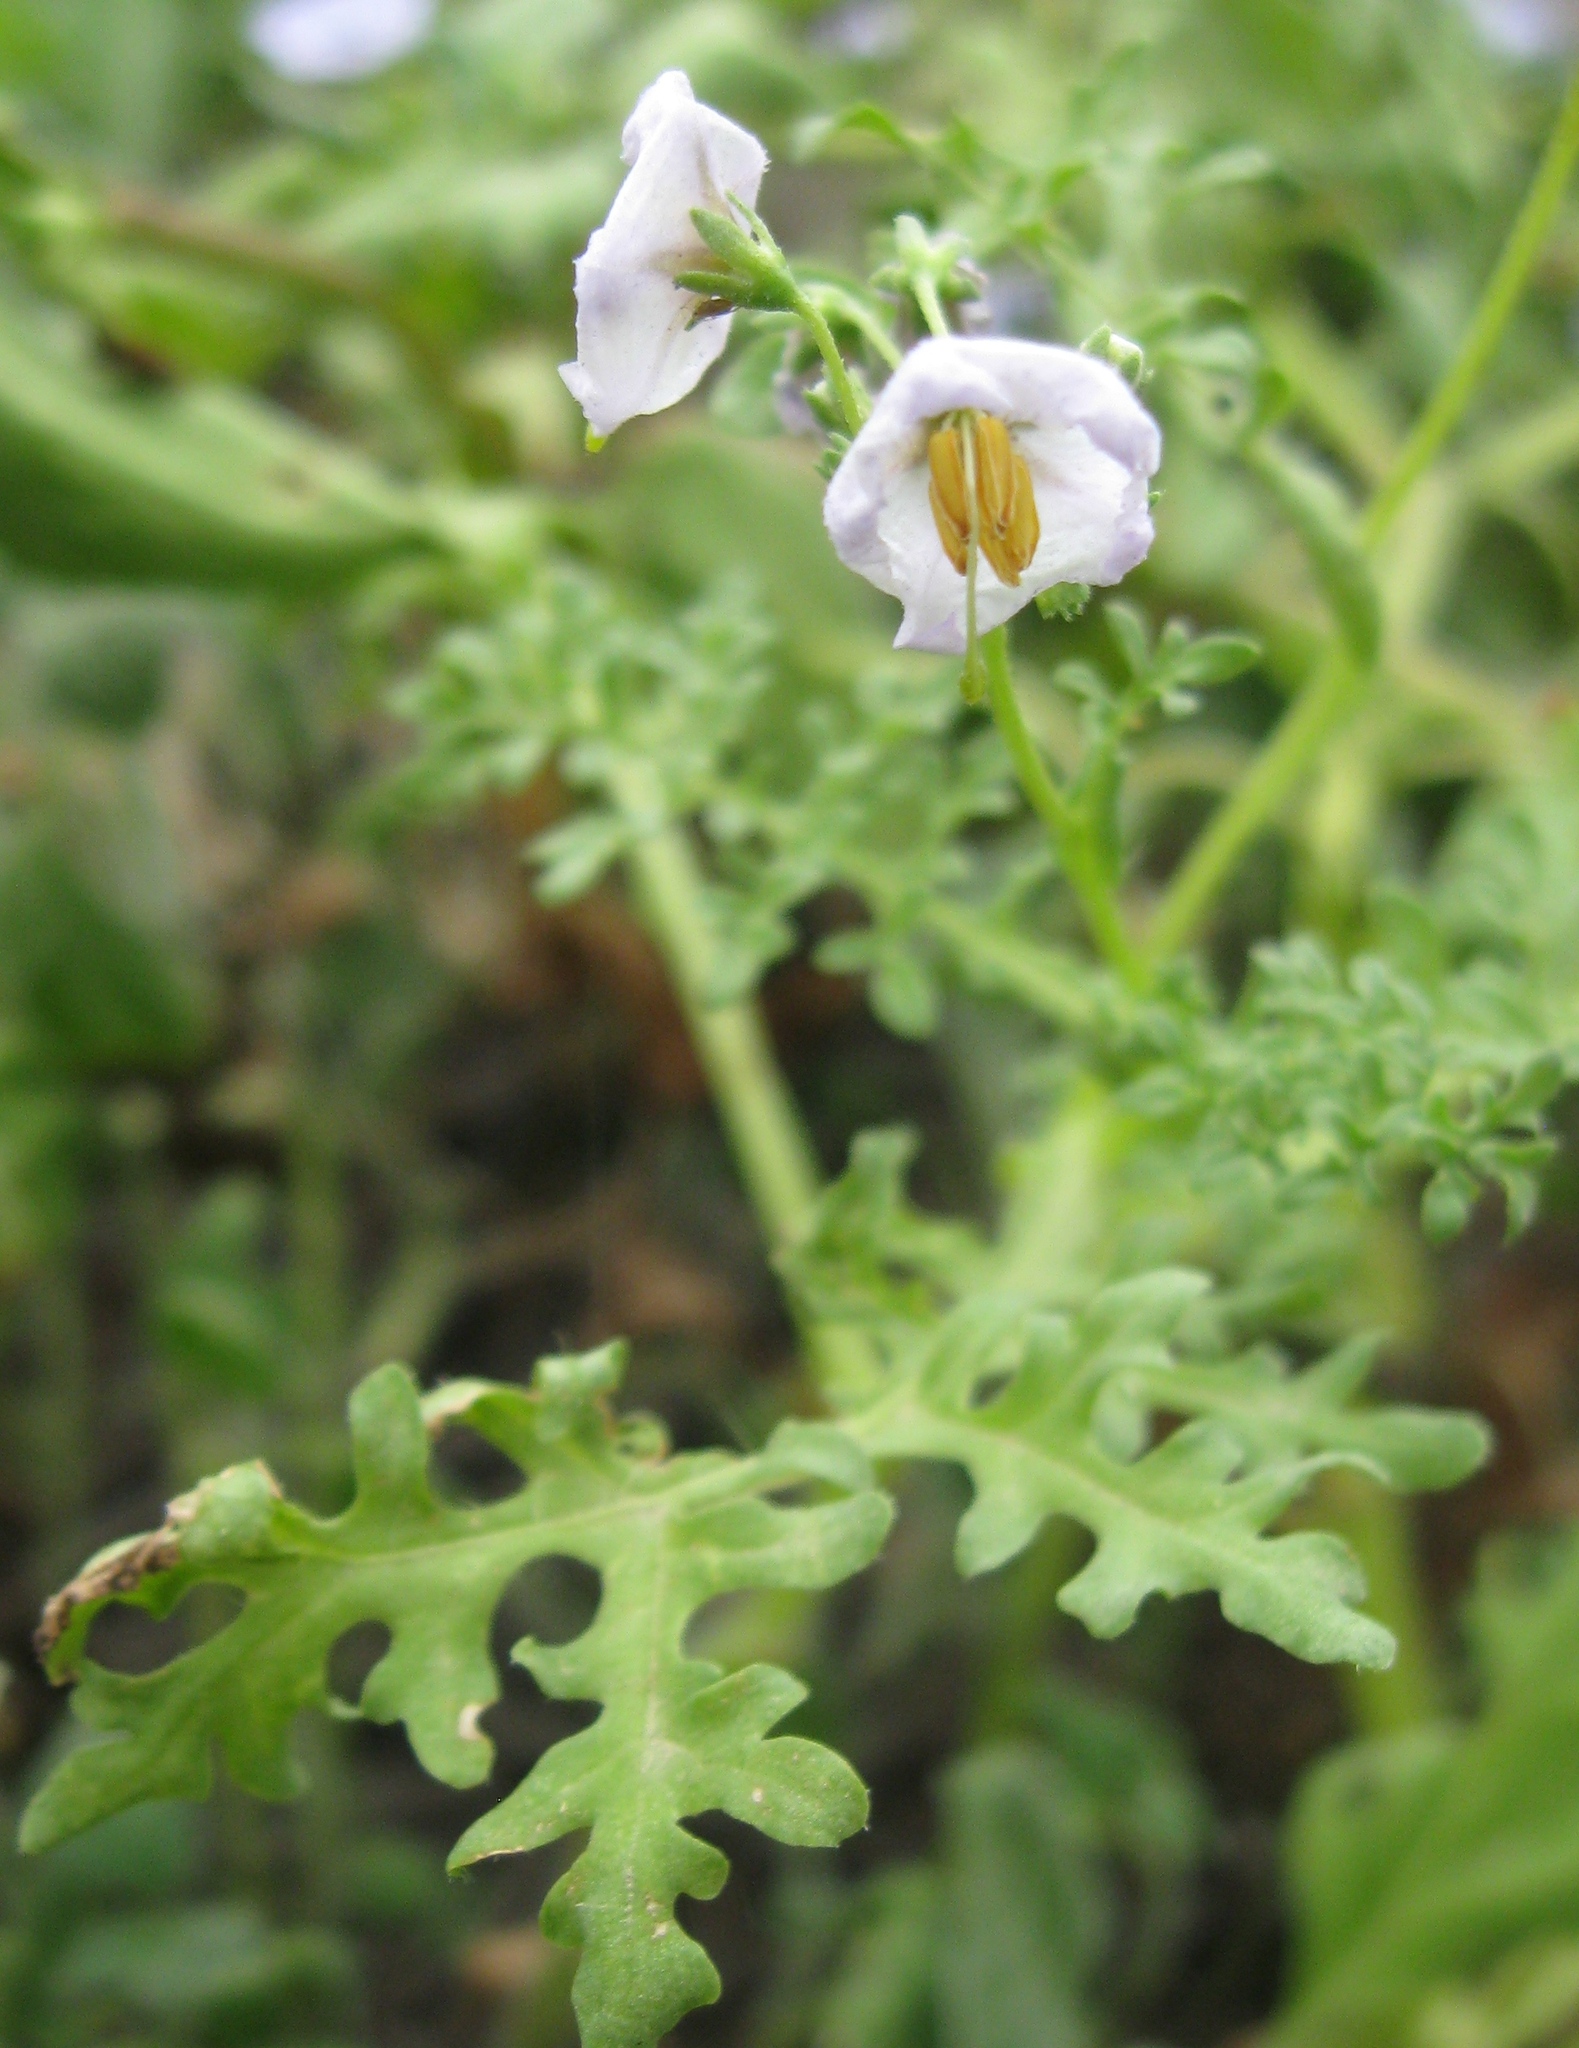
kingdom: Plantae
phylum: Tracheophyta
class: Magnoliopsida
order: Solanales
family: Solanaceae
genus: Solanum
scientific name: Solanum multifidum
